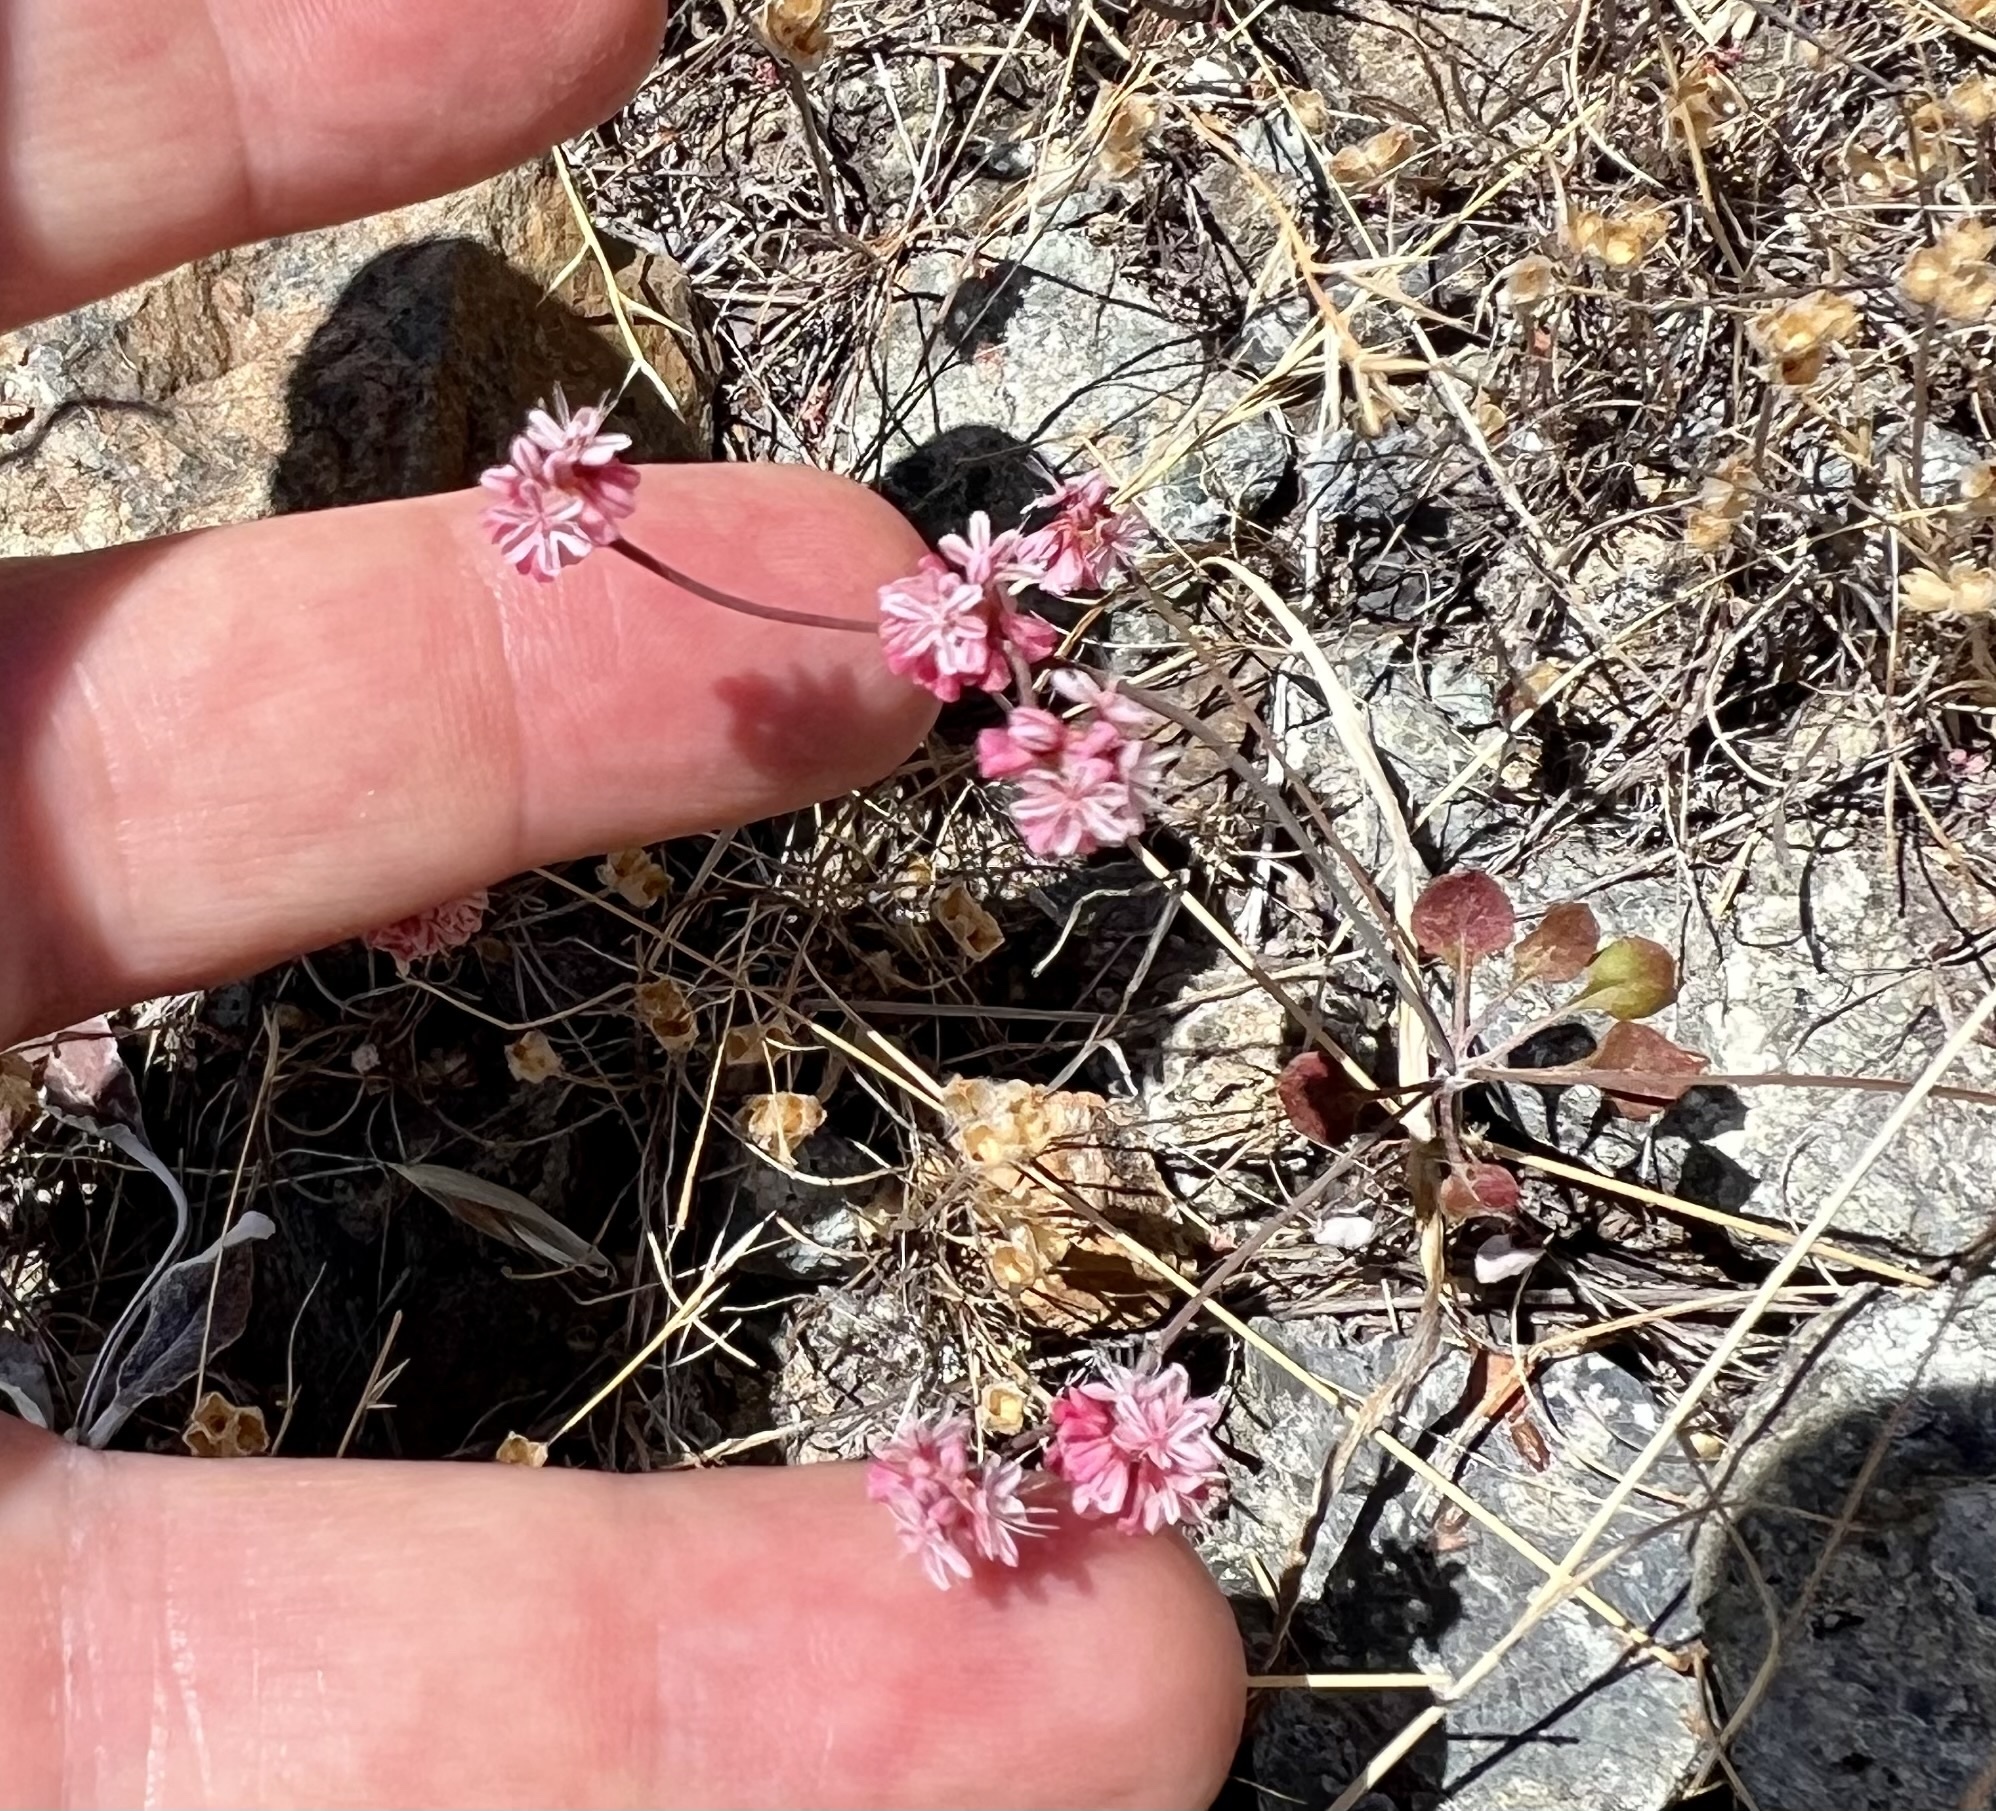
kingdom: Plantae
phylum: Tracheophyta
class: Magnoliopsida
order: Caryophyllales
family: Polygonaceae
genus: Eriogonum
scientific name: Eriogonum luteolum
